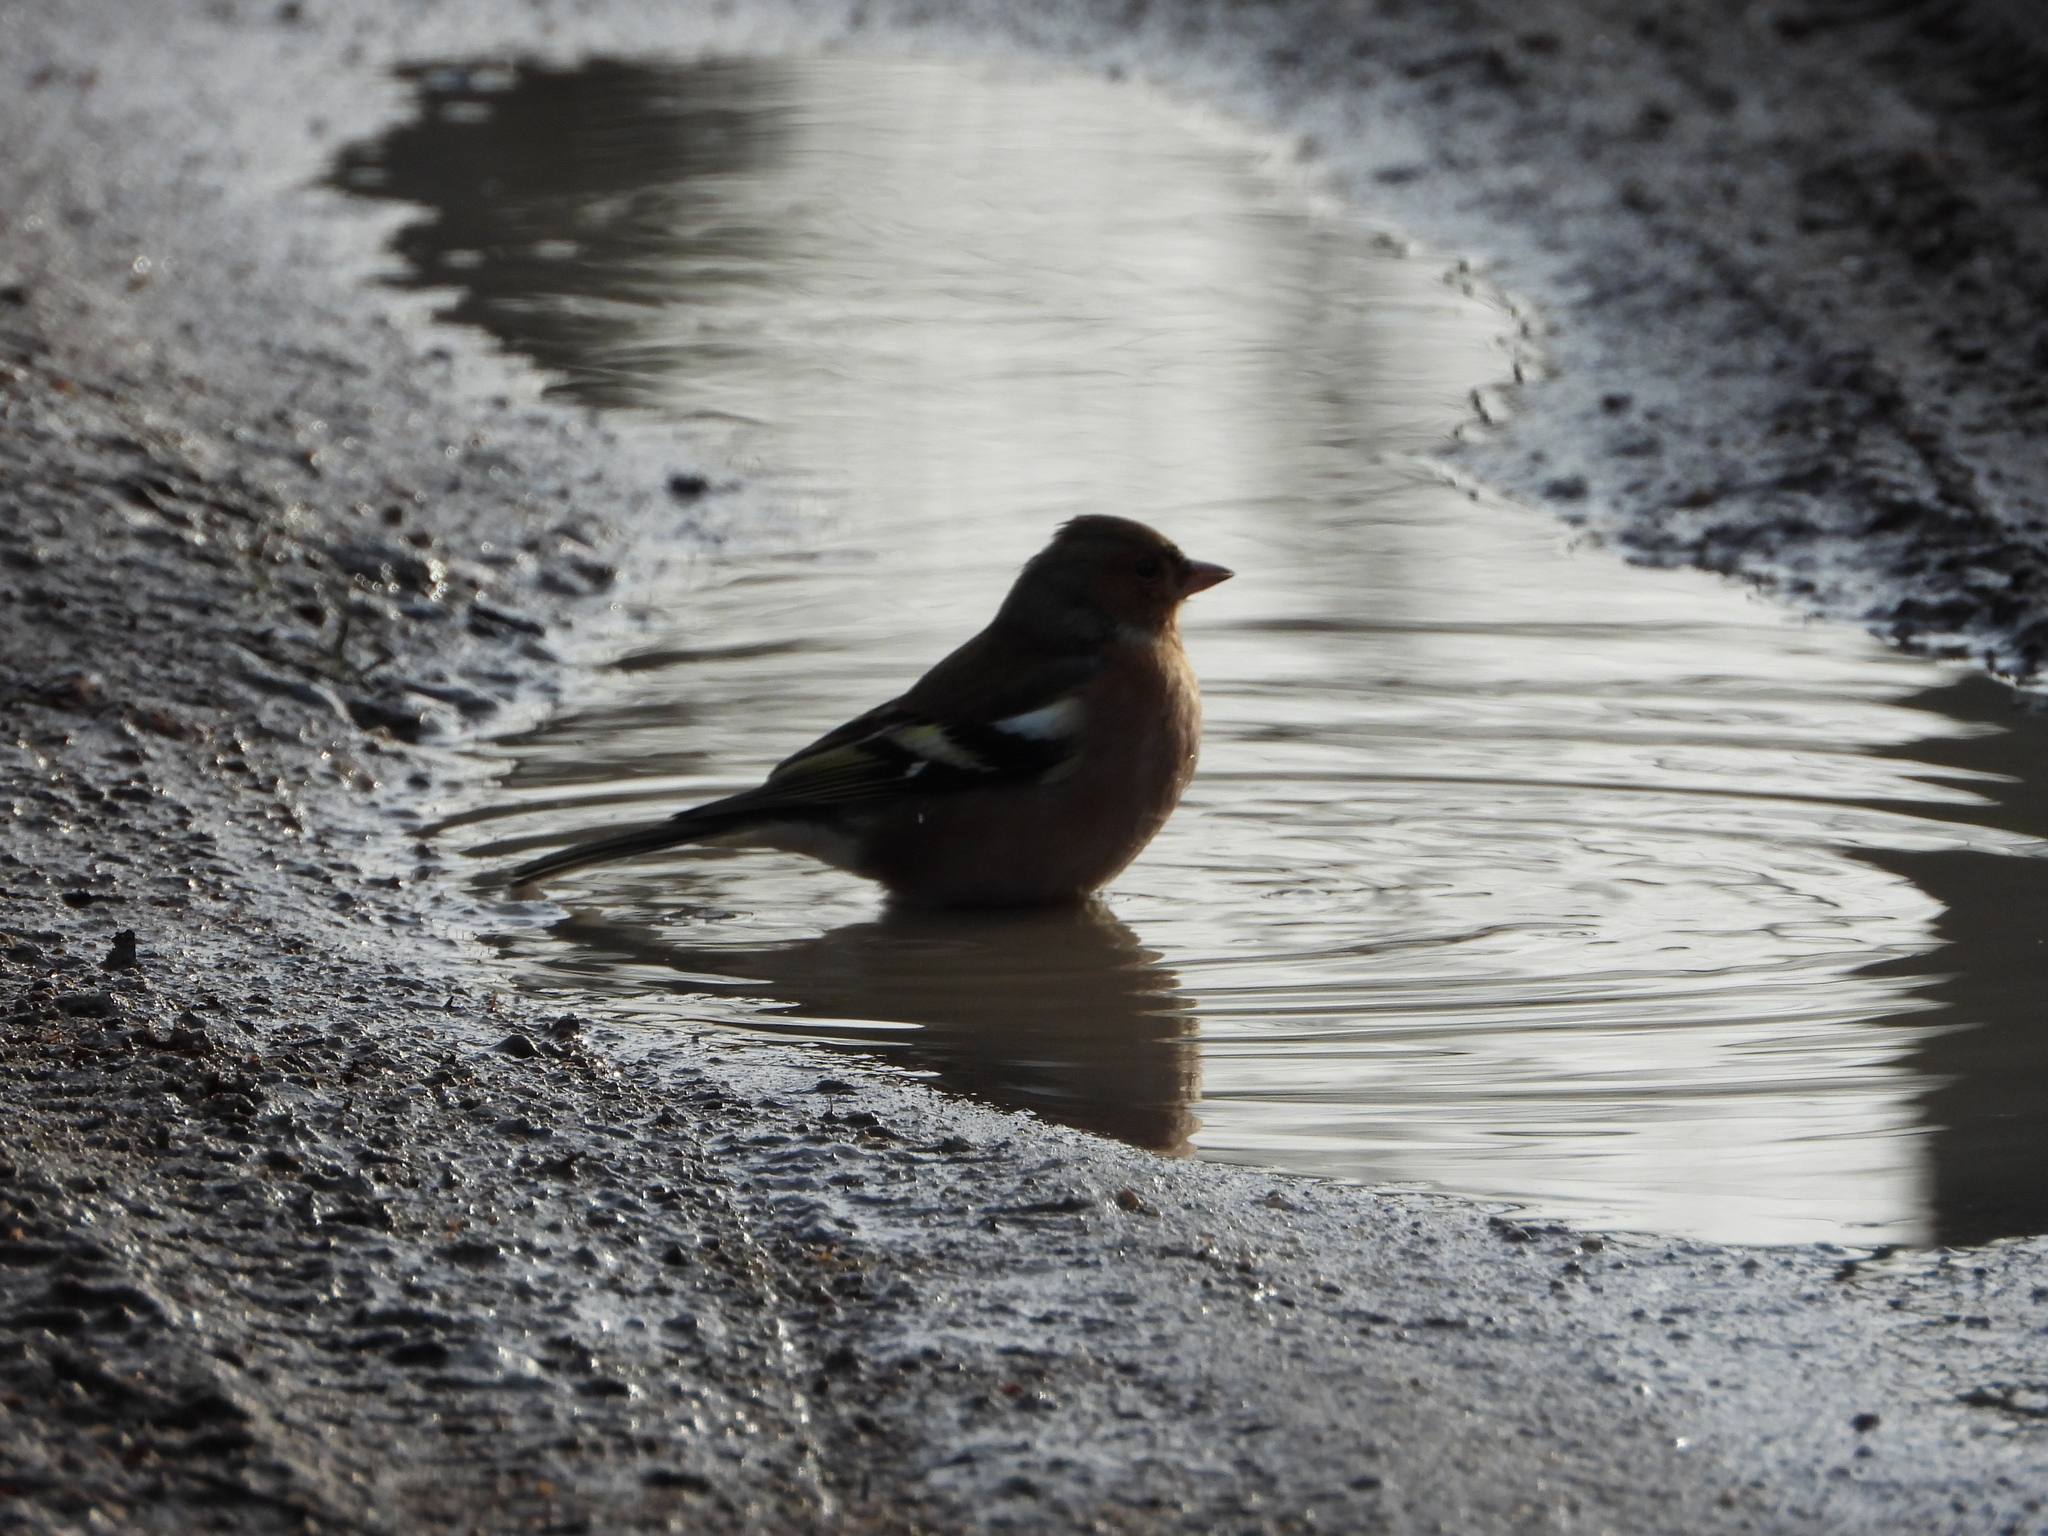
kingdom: Animalia
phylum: Chordata
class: Aves
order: Passeriformes
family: Fringillidae
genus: Fringilla
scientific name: Fringilla coelebs
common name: Common chaffinch
